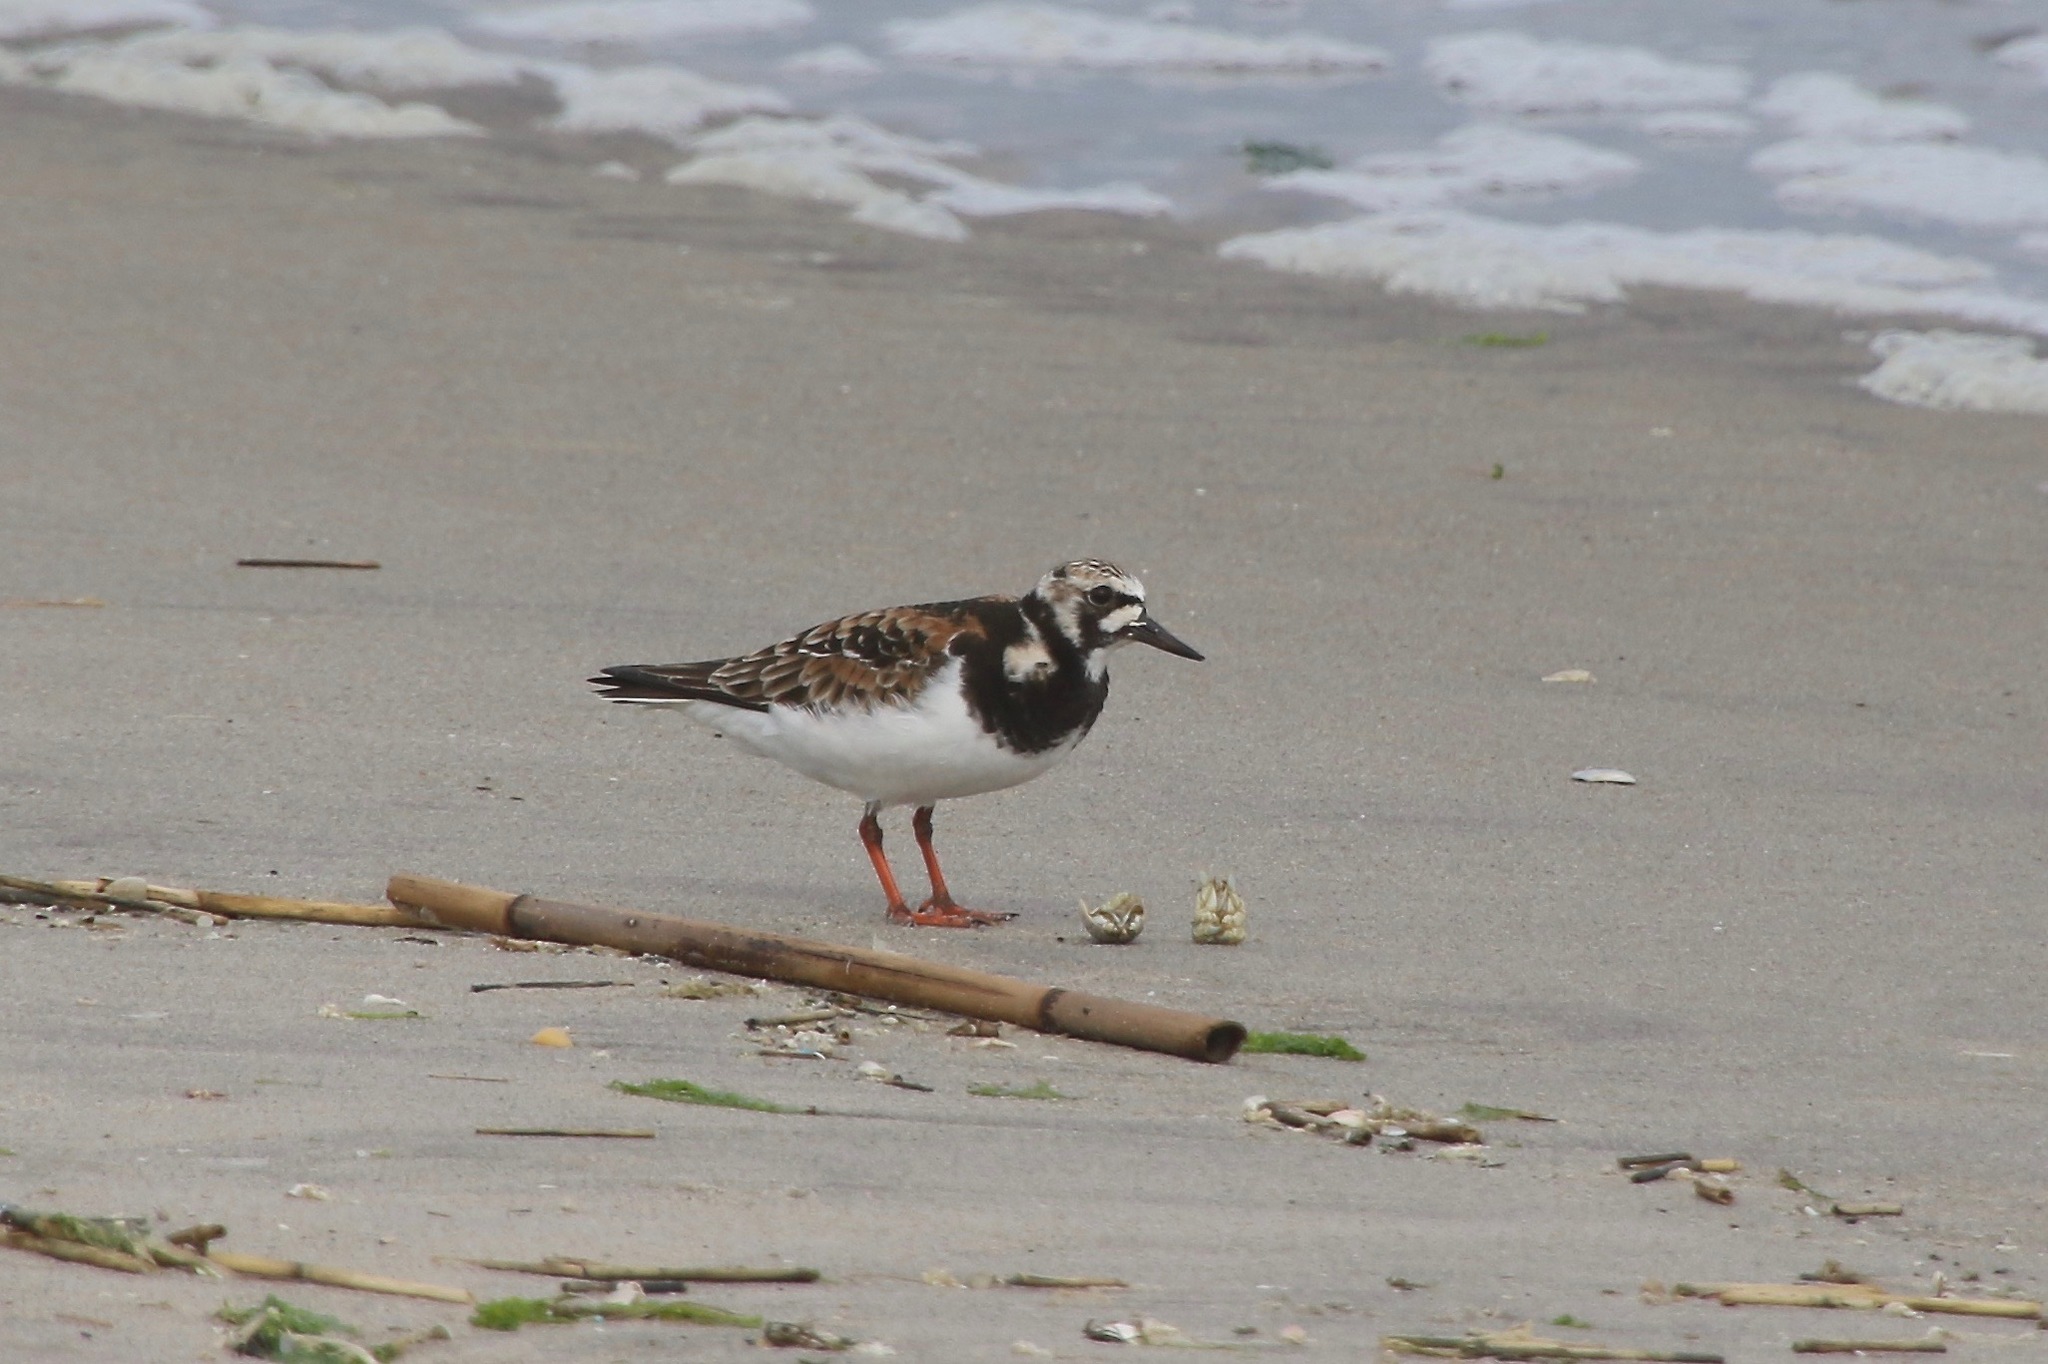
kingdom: Animalia
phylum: Chordata
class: Aves
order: Charadriiformes
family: Scolopacidae
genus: Arenaria
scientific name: Arenaria interpres
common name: Ruddy turnstone
